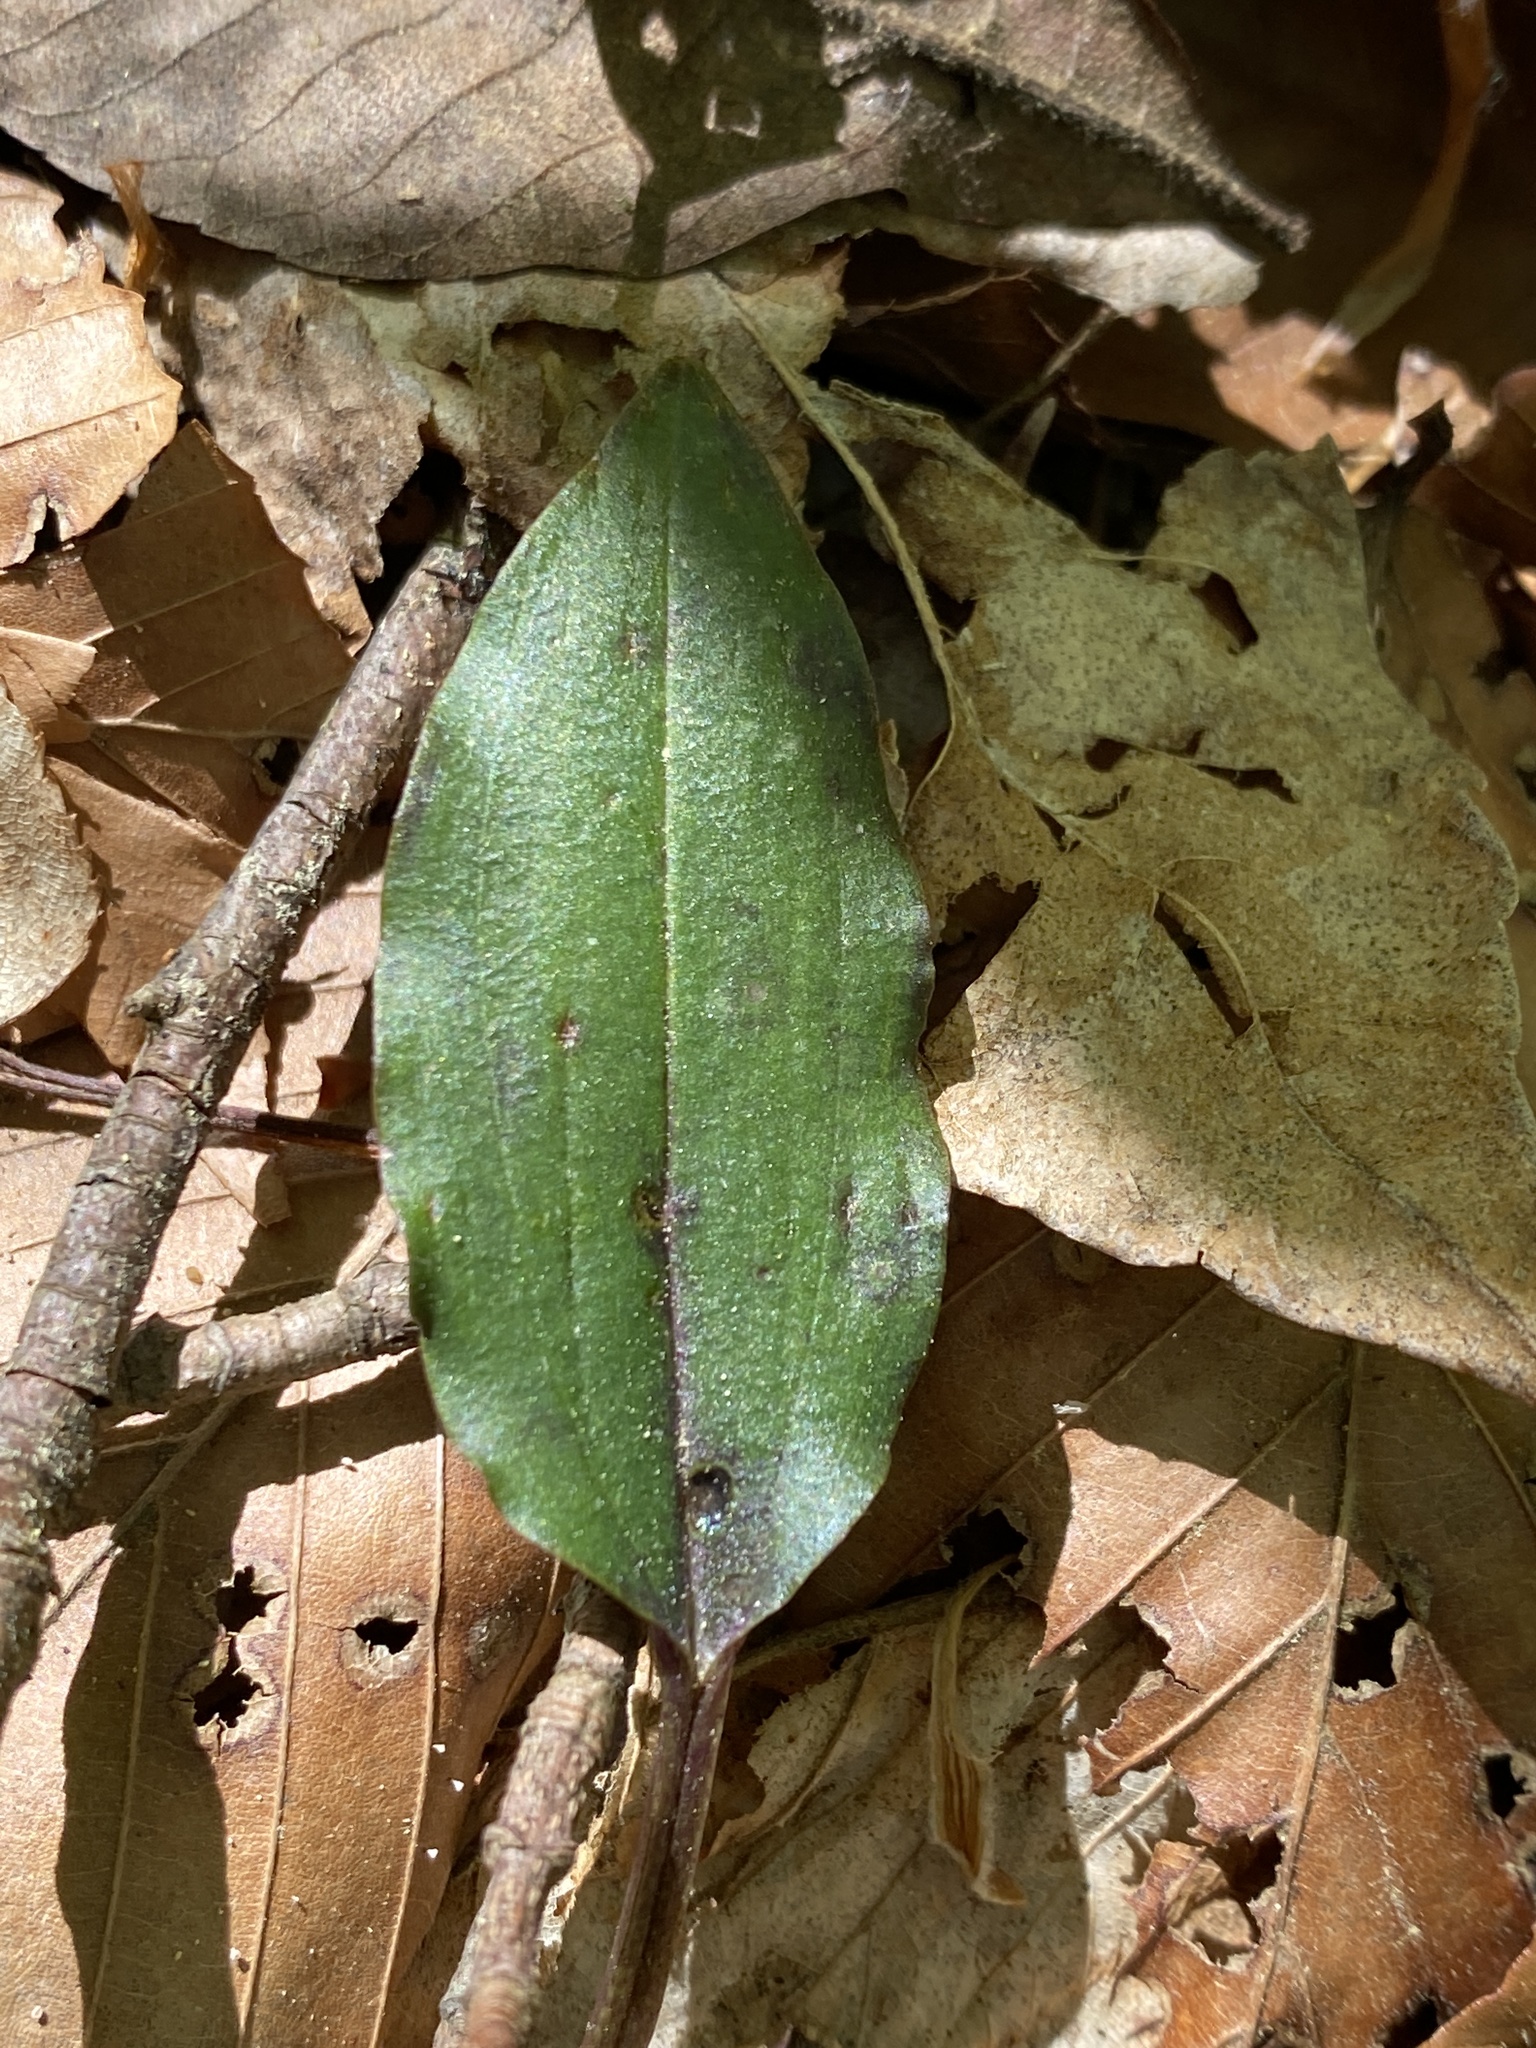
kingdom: Plantae
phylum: Tracheophyta
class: Liliopsida
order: Asparagales
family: Orchidaceae
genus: Tipularia
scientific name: Tipularia discolor
